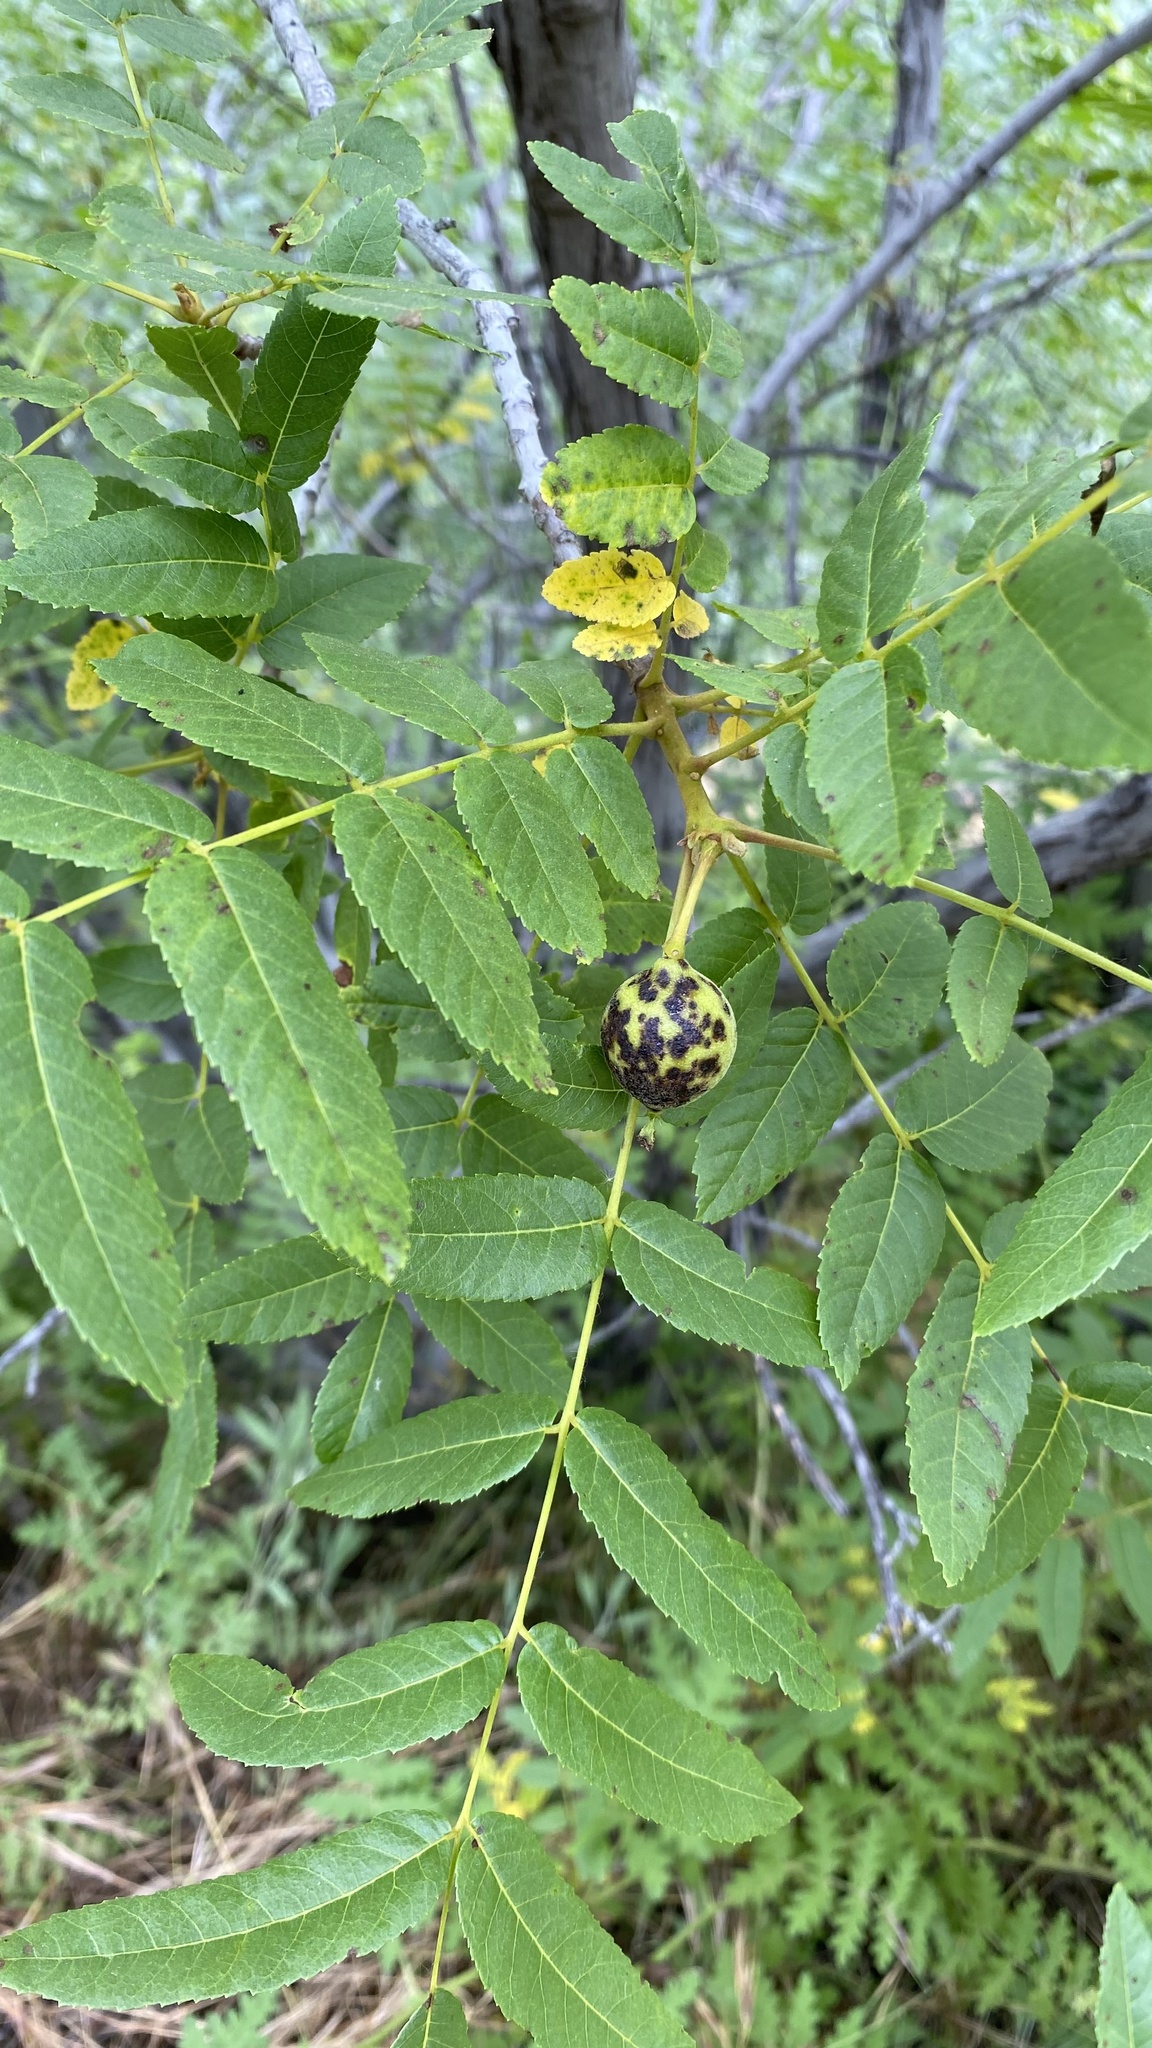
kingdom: Plantae
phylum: Tracheophyta
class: Magnoliopsida
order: Fagales
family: Juglandaceae
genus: Juglans
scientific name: Juglans californica
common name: Southern california black walnut
